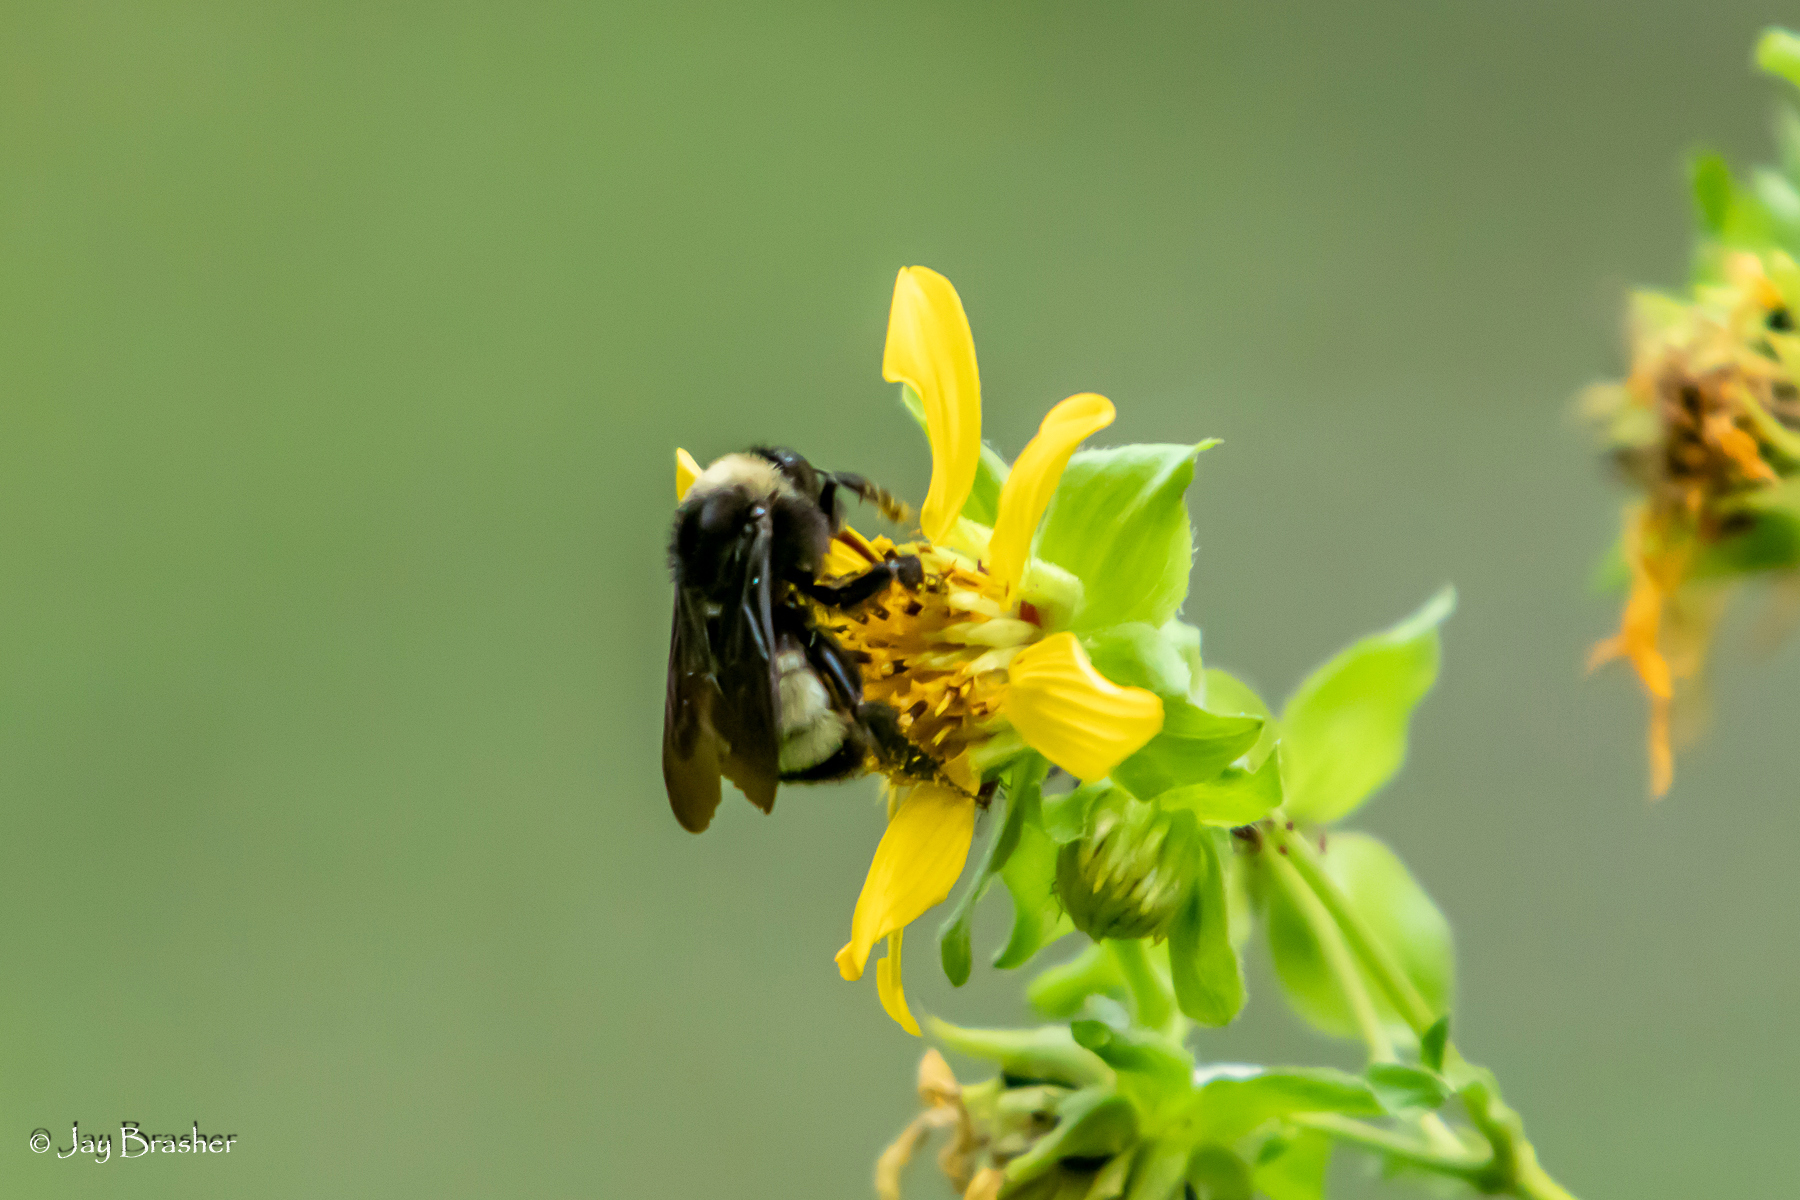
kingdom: Animalia
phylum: Arthropoda
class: Insecta
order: Hymenoptera
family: Apidae
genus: Bombus
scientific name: Bombus pensylvanicus
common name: Bumble bee
